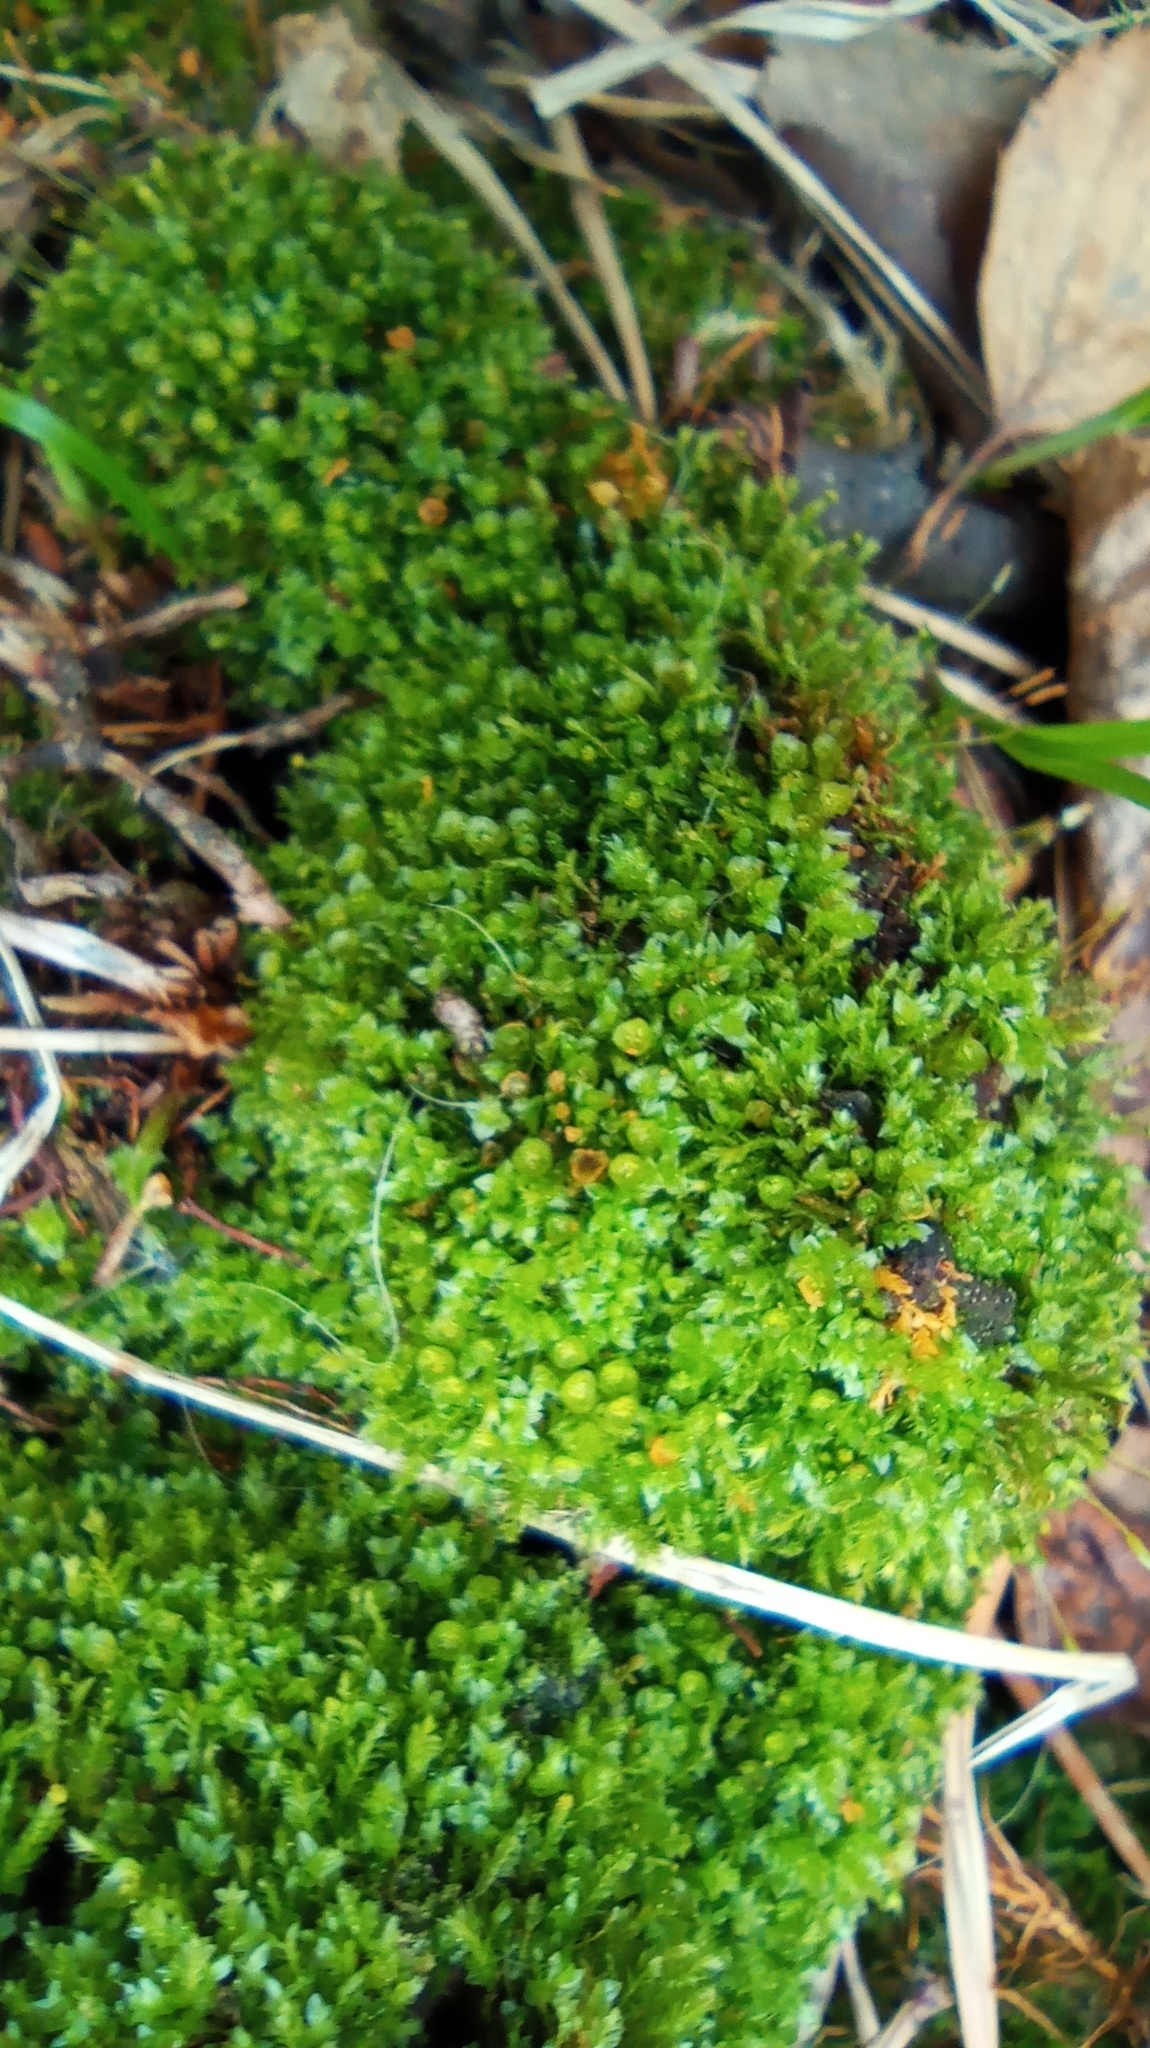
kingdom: Plantae
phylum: Bryophyta
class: Polytrichopsida
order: Tetraphidales
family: Tetraphidaceae
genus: Tetraphis
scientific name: Tetraphis pellucida
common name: Common four-toothed moss
